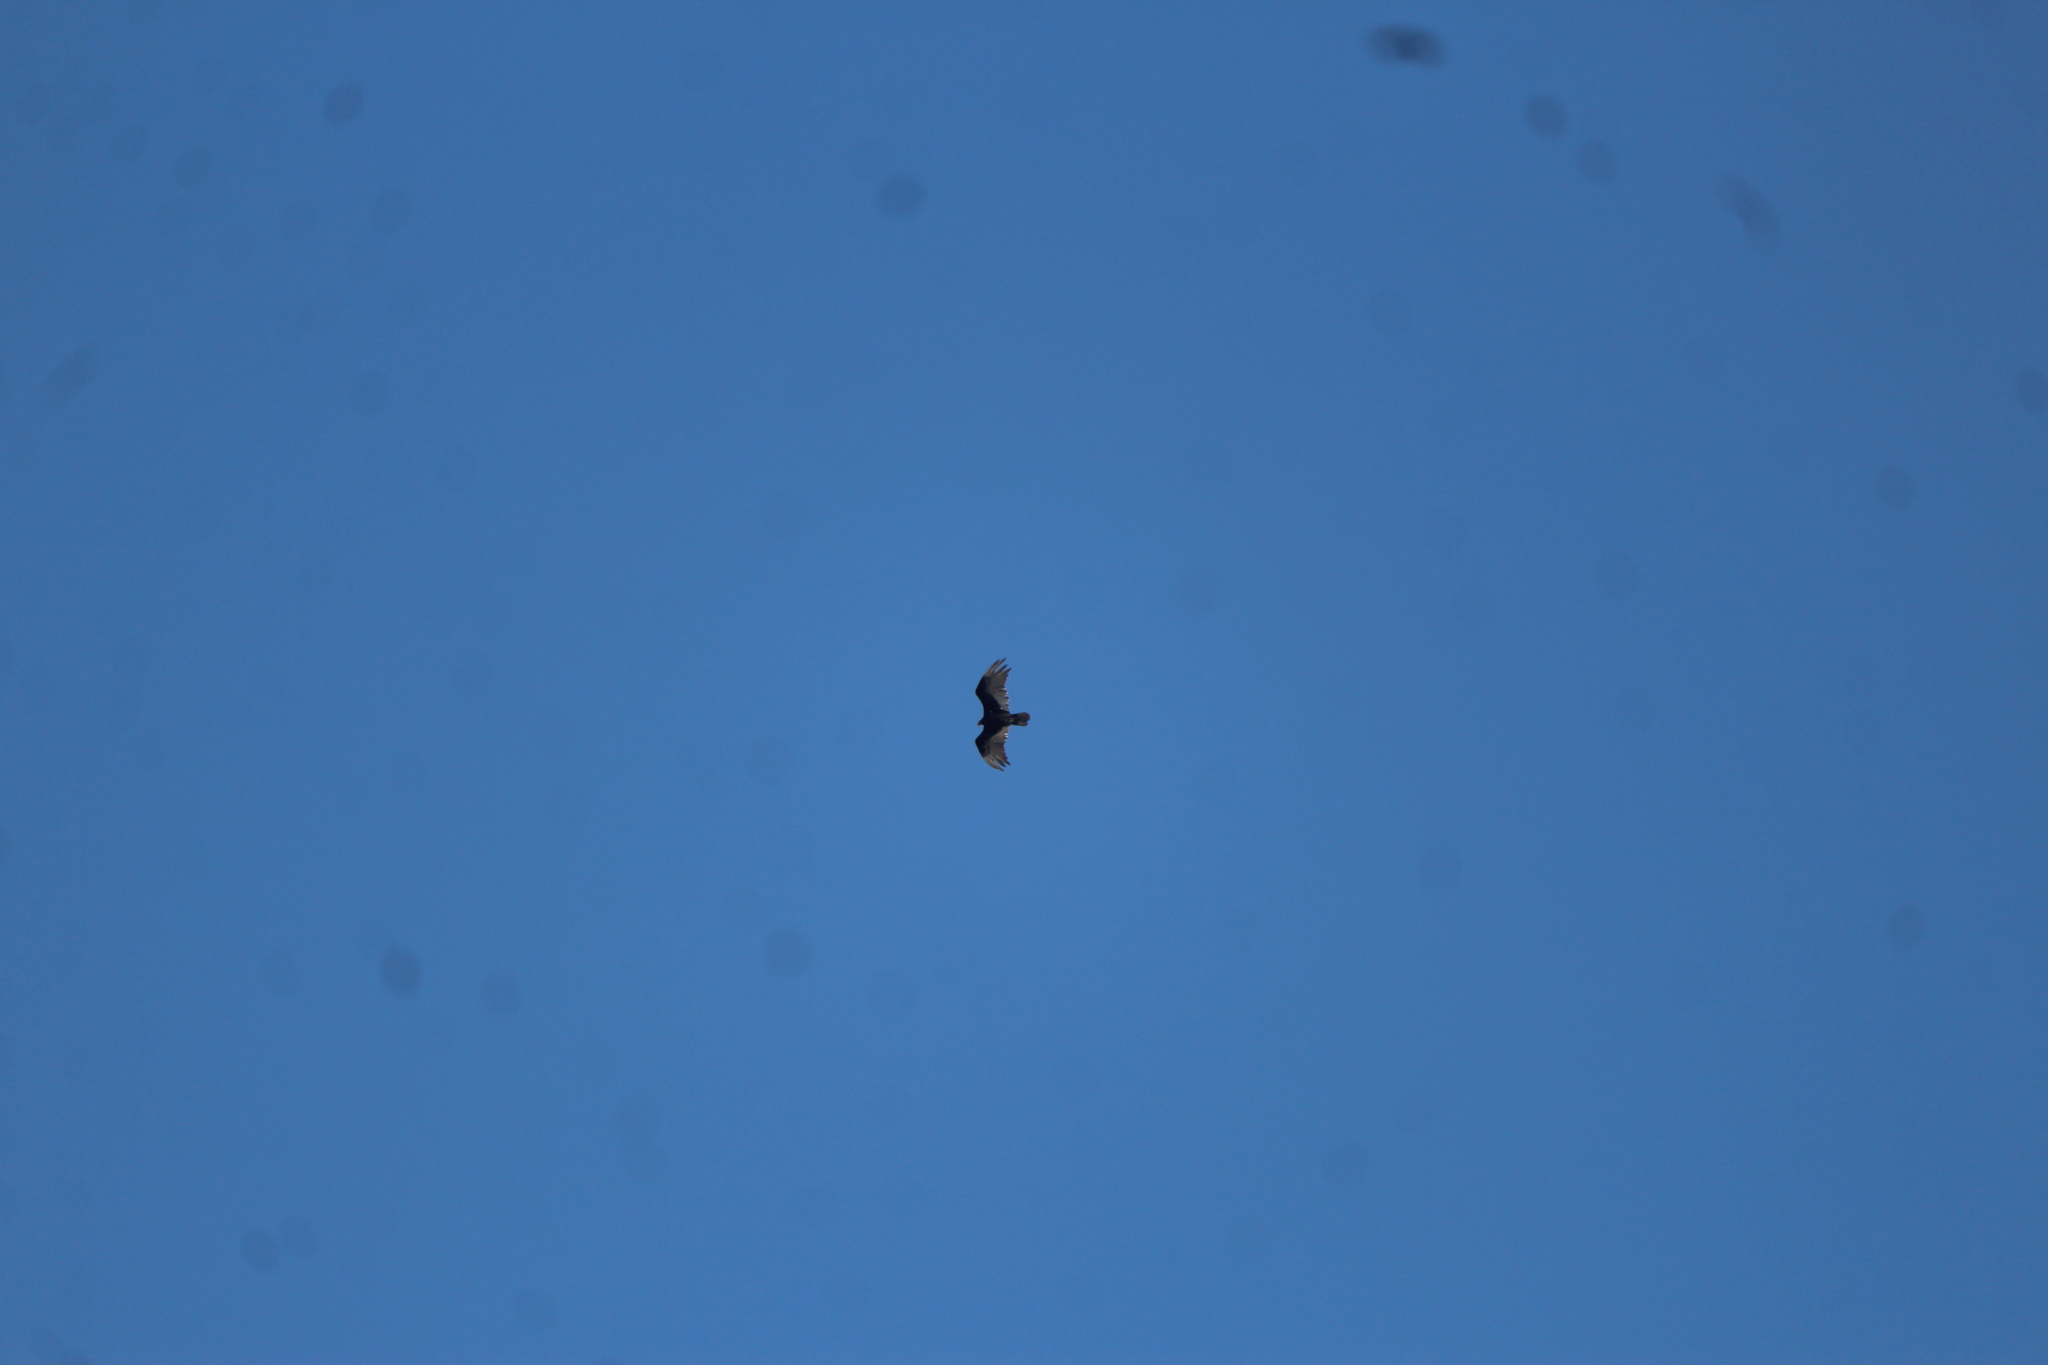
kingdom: Animalia
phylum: Chordata
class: Aves
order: Accipitriformes
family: Cathartidae
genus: Cathartes
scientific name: Cathartes aura
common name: Turkey vulture
